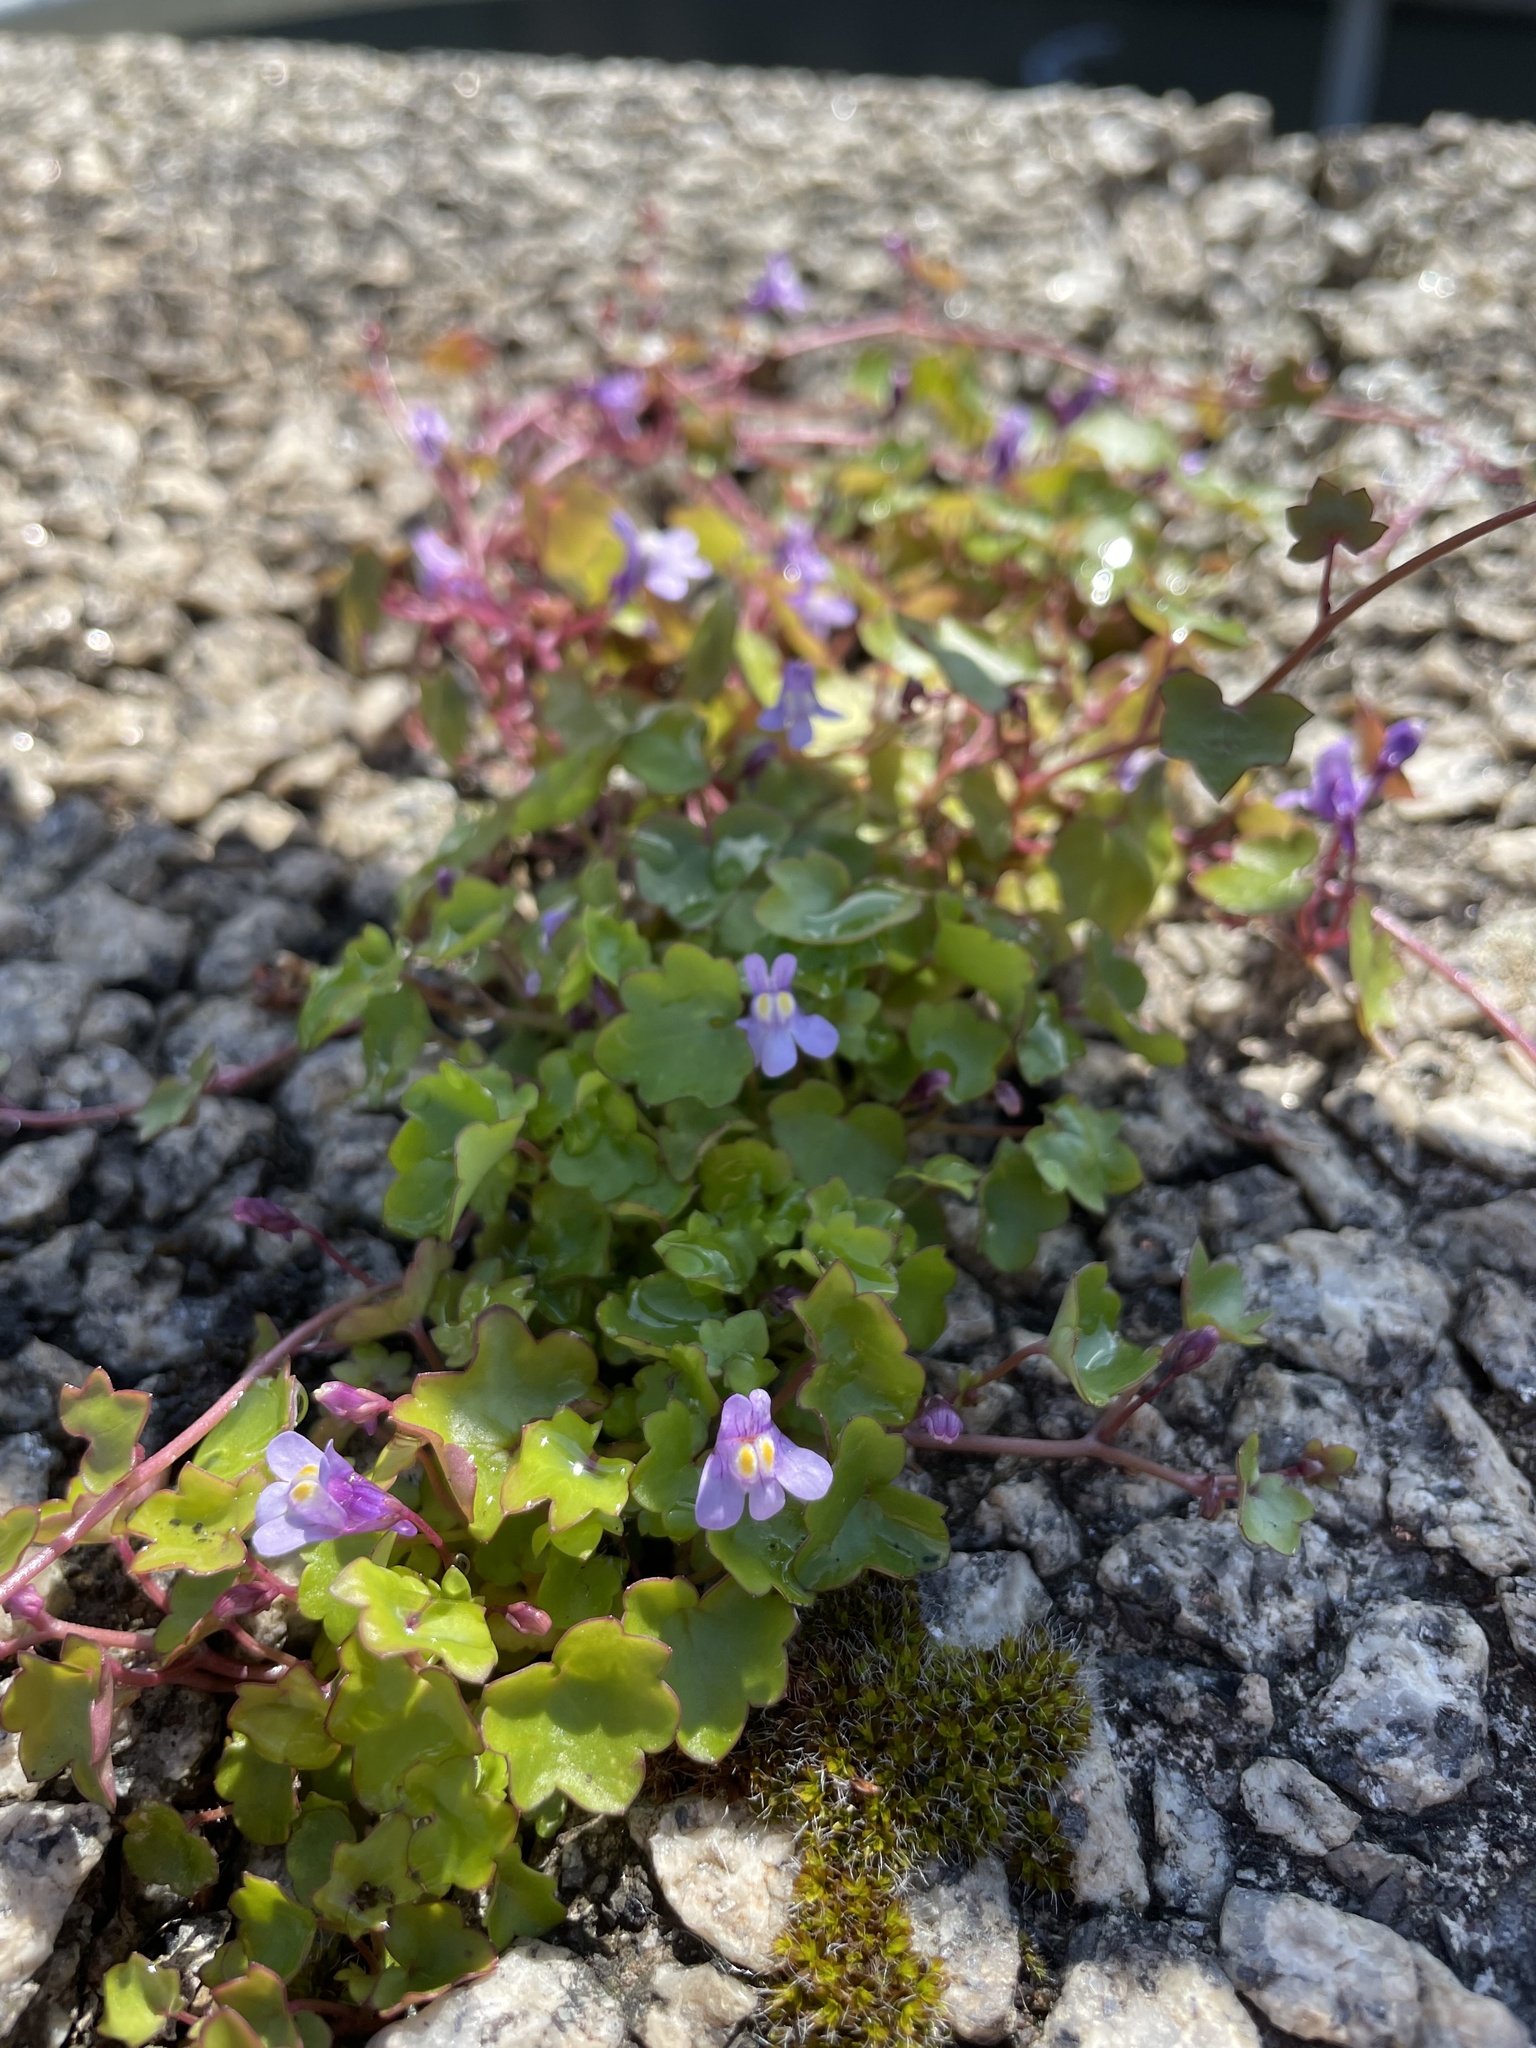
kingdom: Plantae
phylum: Tracheophyta
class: Magnoliopsida
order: Lamiales
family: Plantaginaceae
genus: Cymbalaria
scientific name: Cymbalaria muralis
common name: Ivy-leaved toadflax
